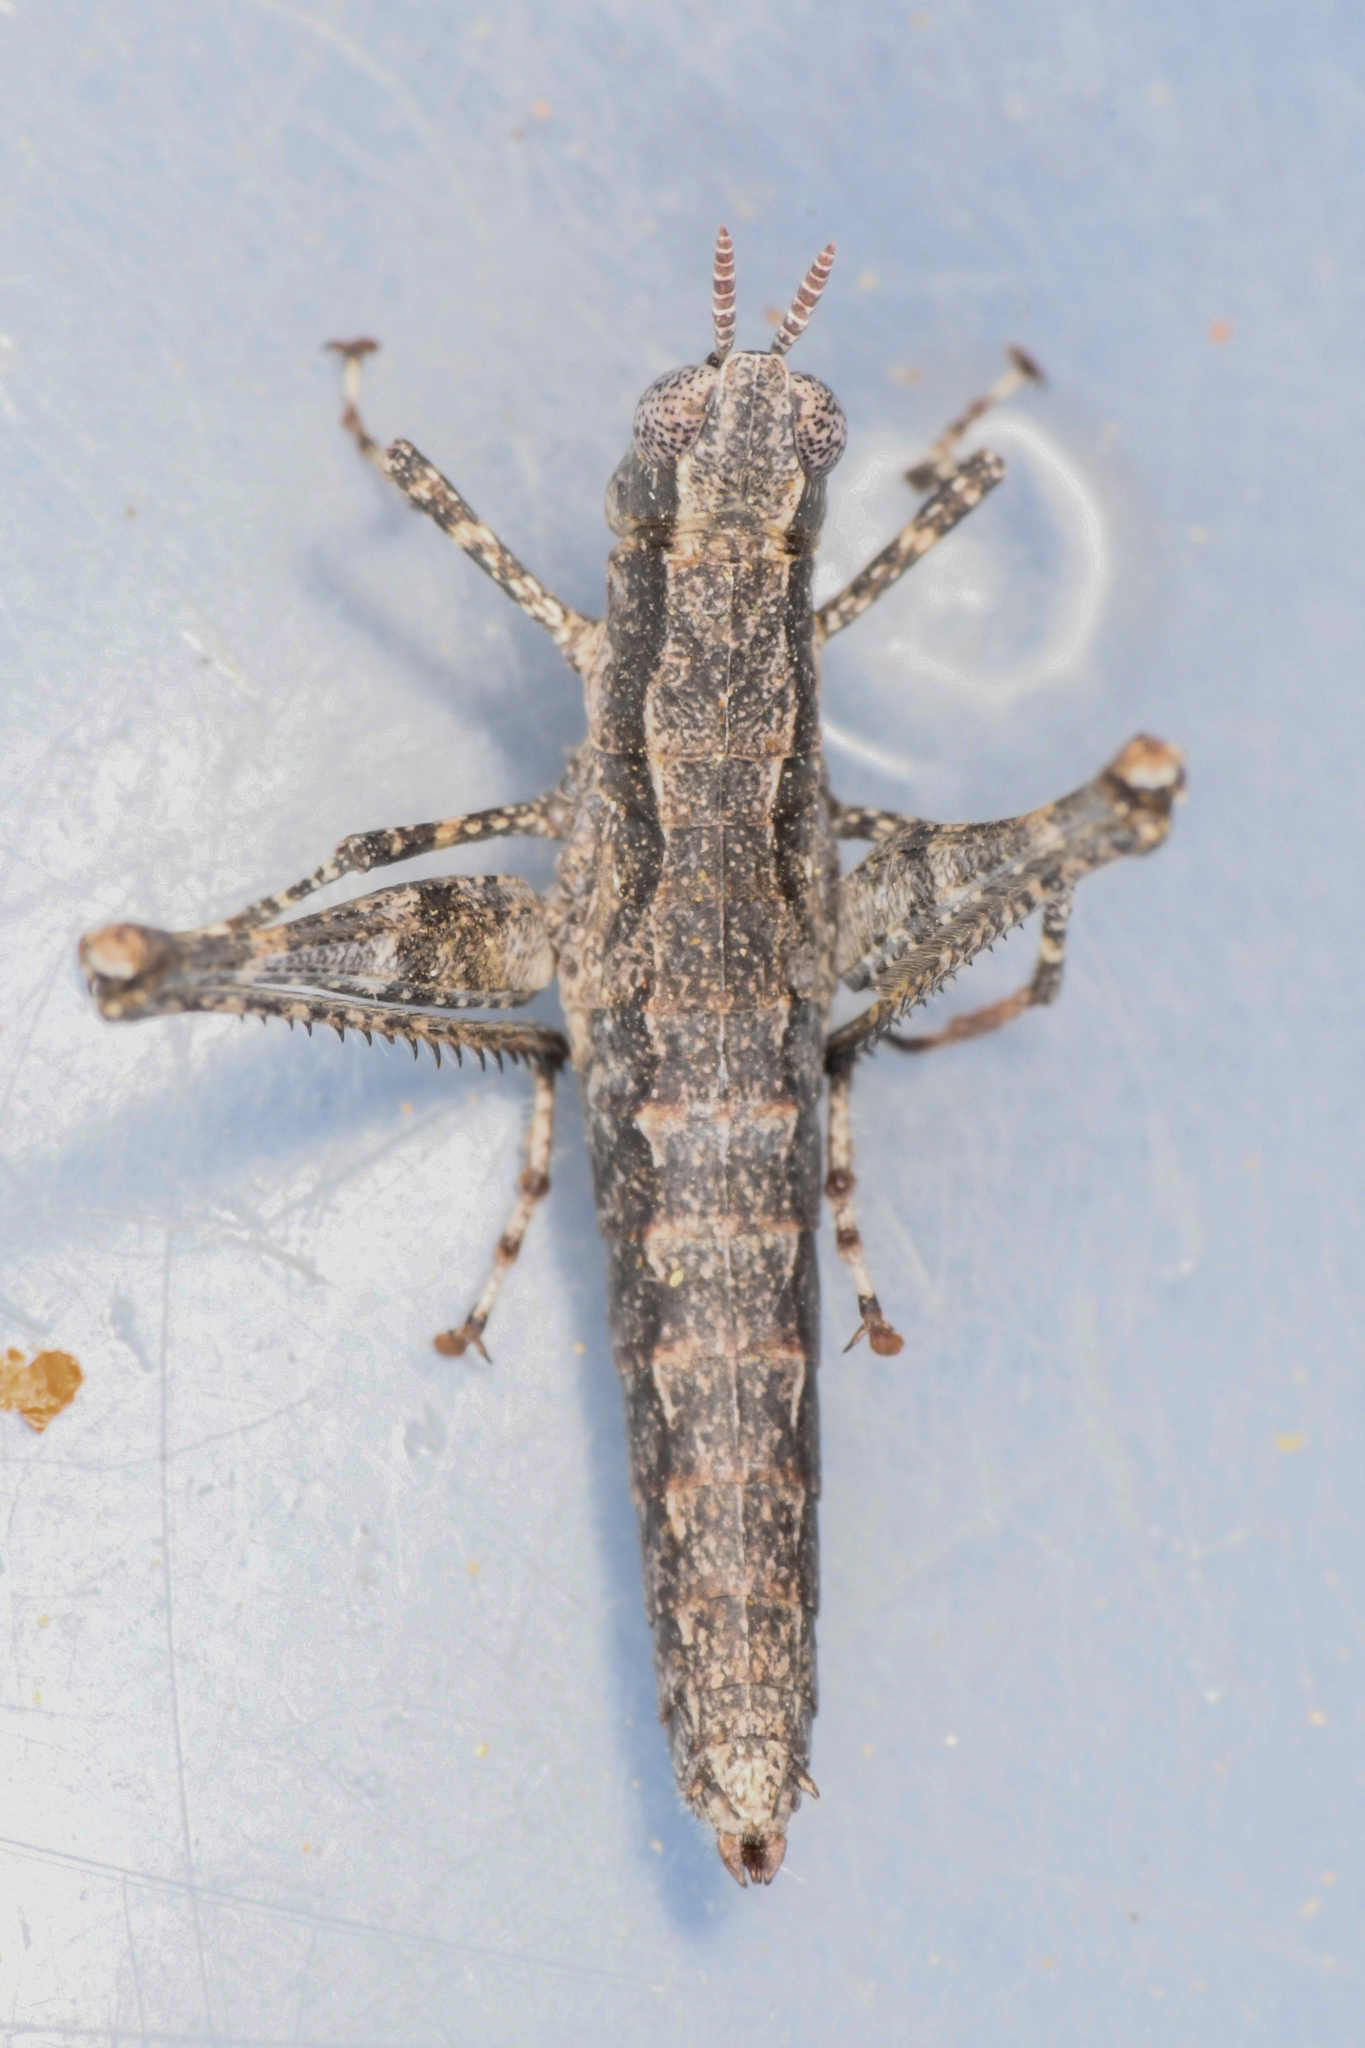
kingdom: Animalia
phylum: Arthropoda
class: Insecta
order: Orthoptera
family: Eumastacidae
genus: Morsea
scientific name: Morsea californica
